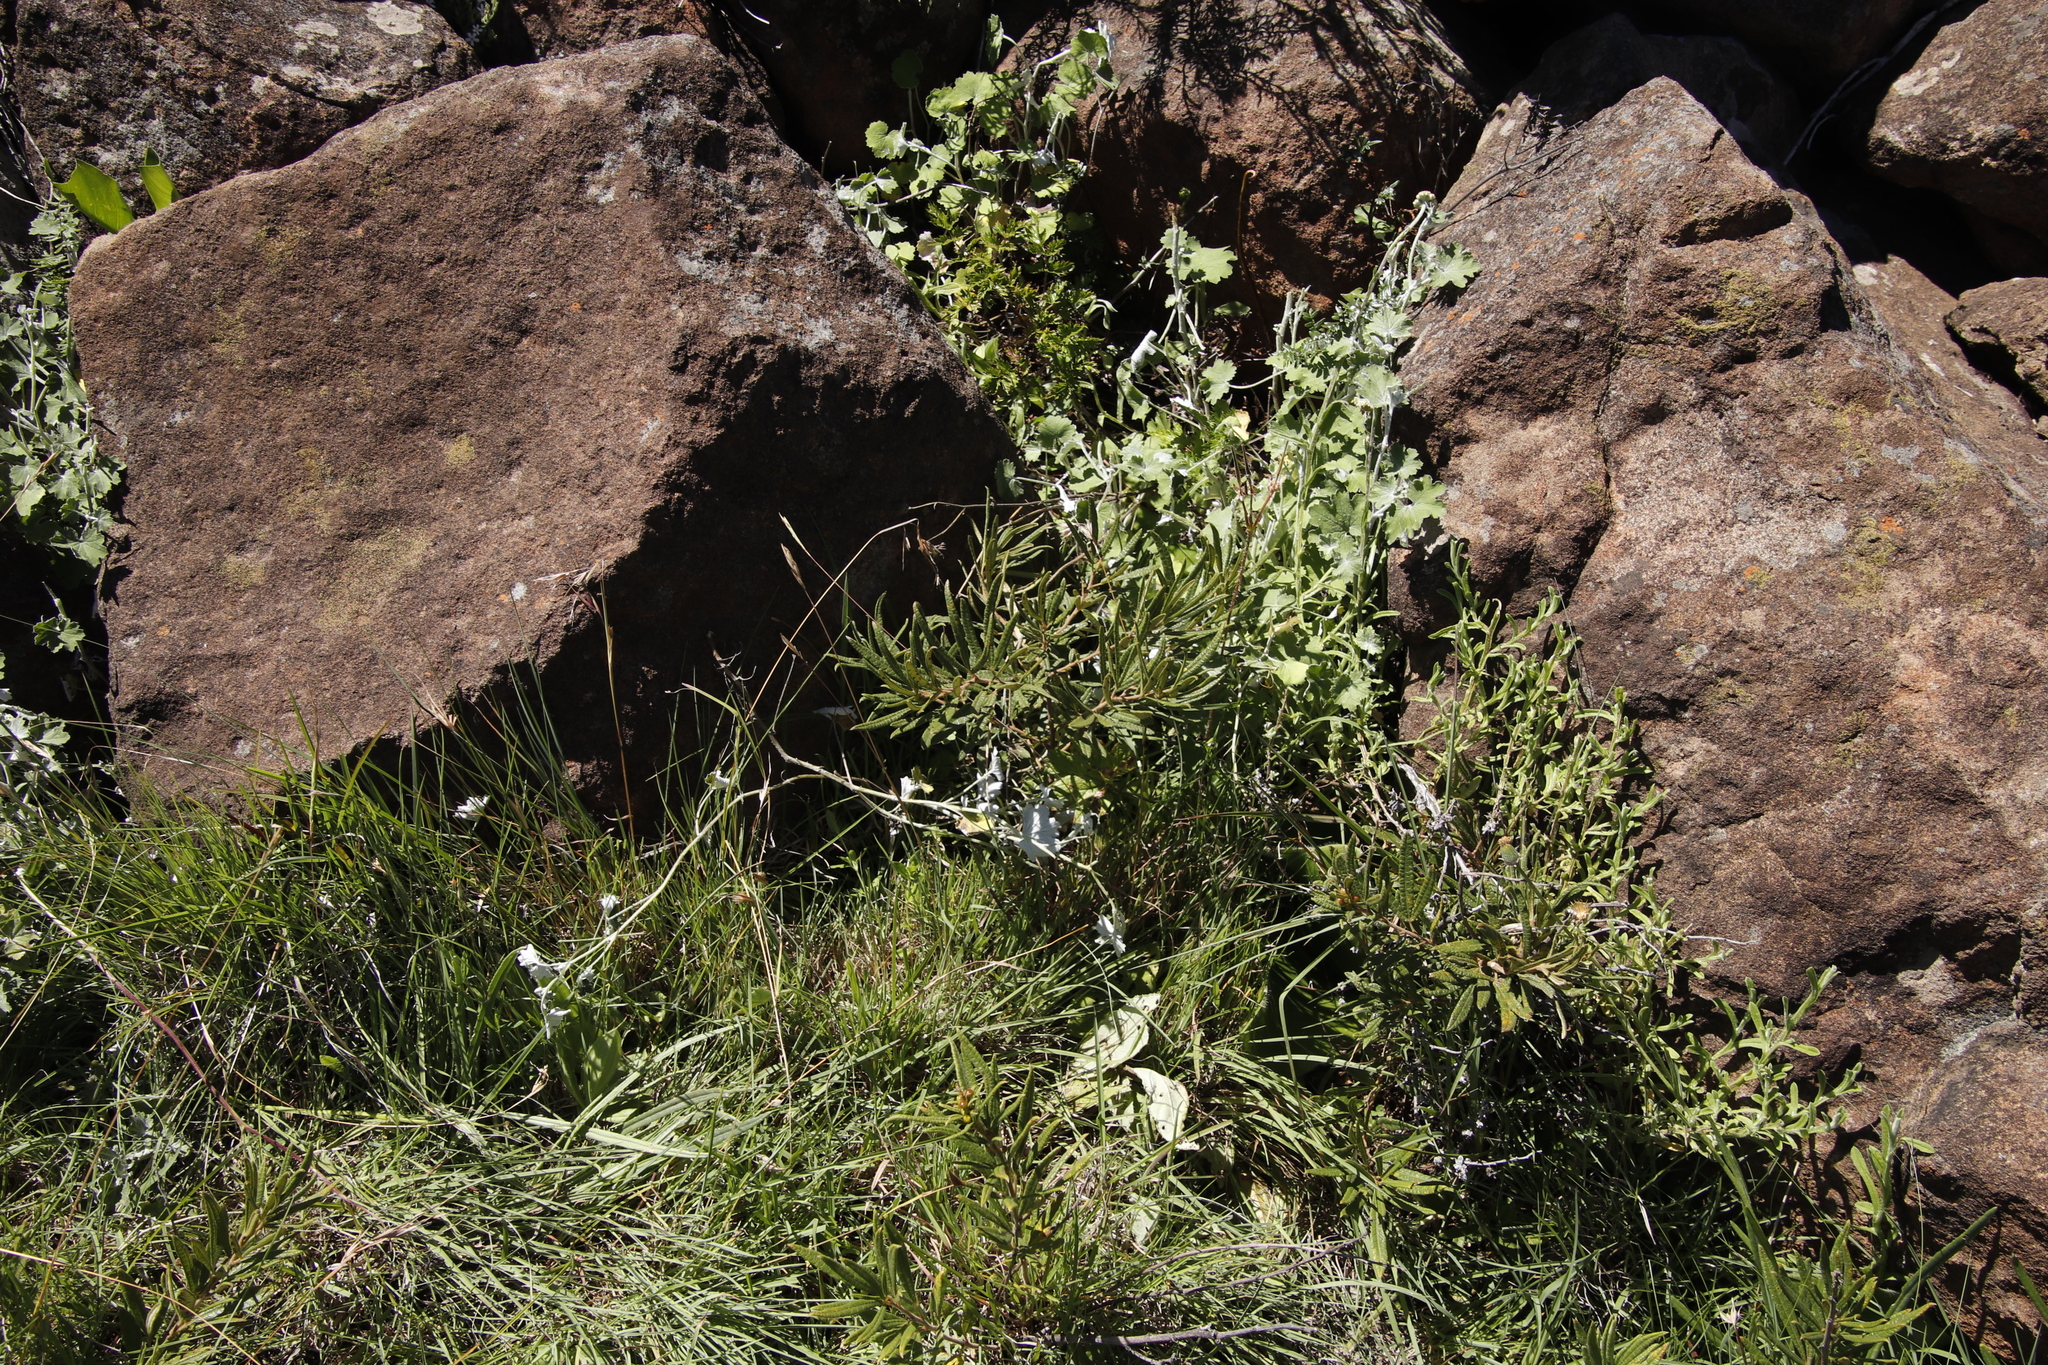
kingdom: Plantae
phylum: Tracheophyta
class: Magnoliopsida
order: Sapindales
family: Anacardiaceae
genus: Searsia
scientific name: Searsia discolor
